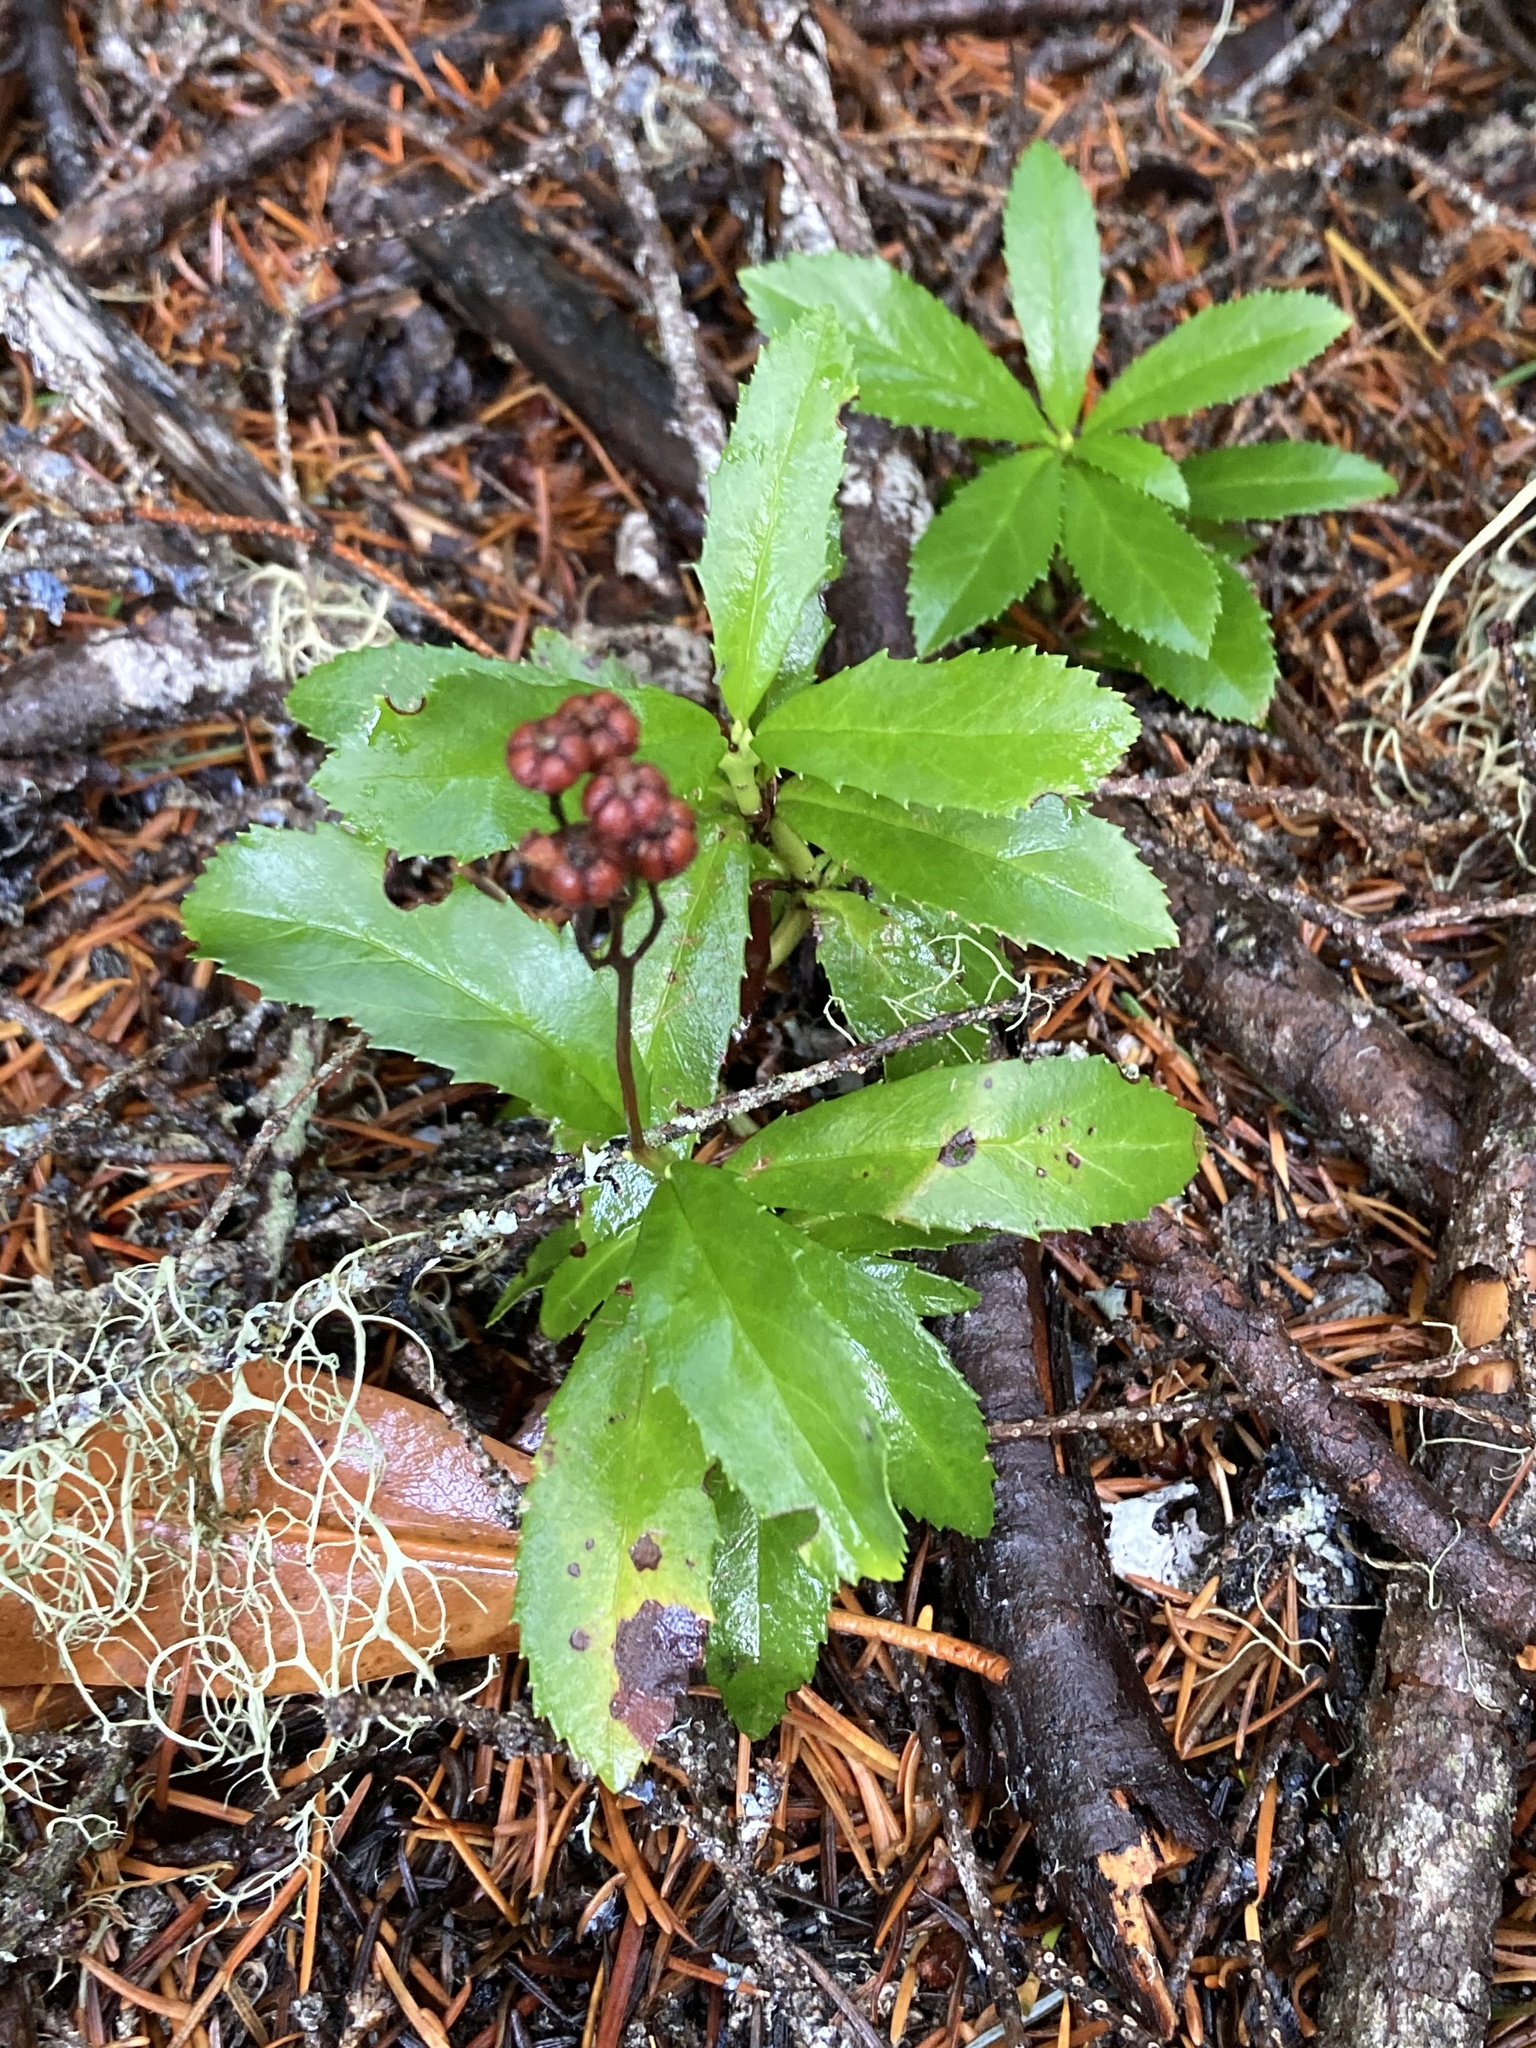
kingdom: Plantae
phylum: Tracheophyta
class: Magnoliopsida
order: Ericales
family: Ericaceae
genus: Chimaphila
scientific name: Chimaphila umbellata
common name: Pipsissewa
